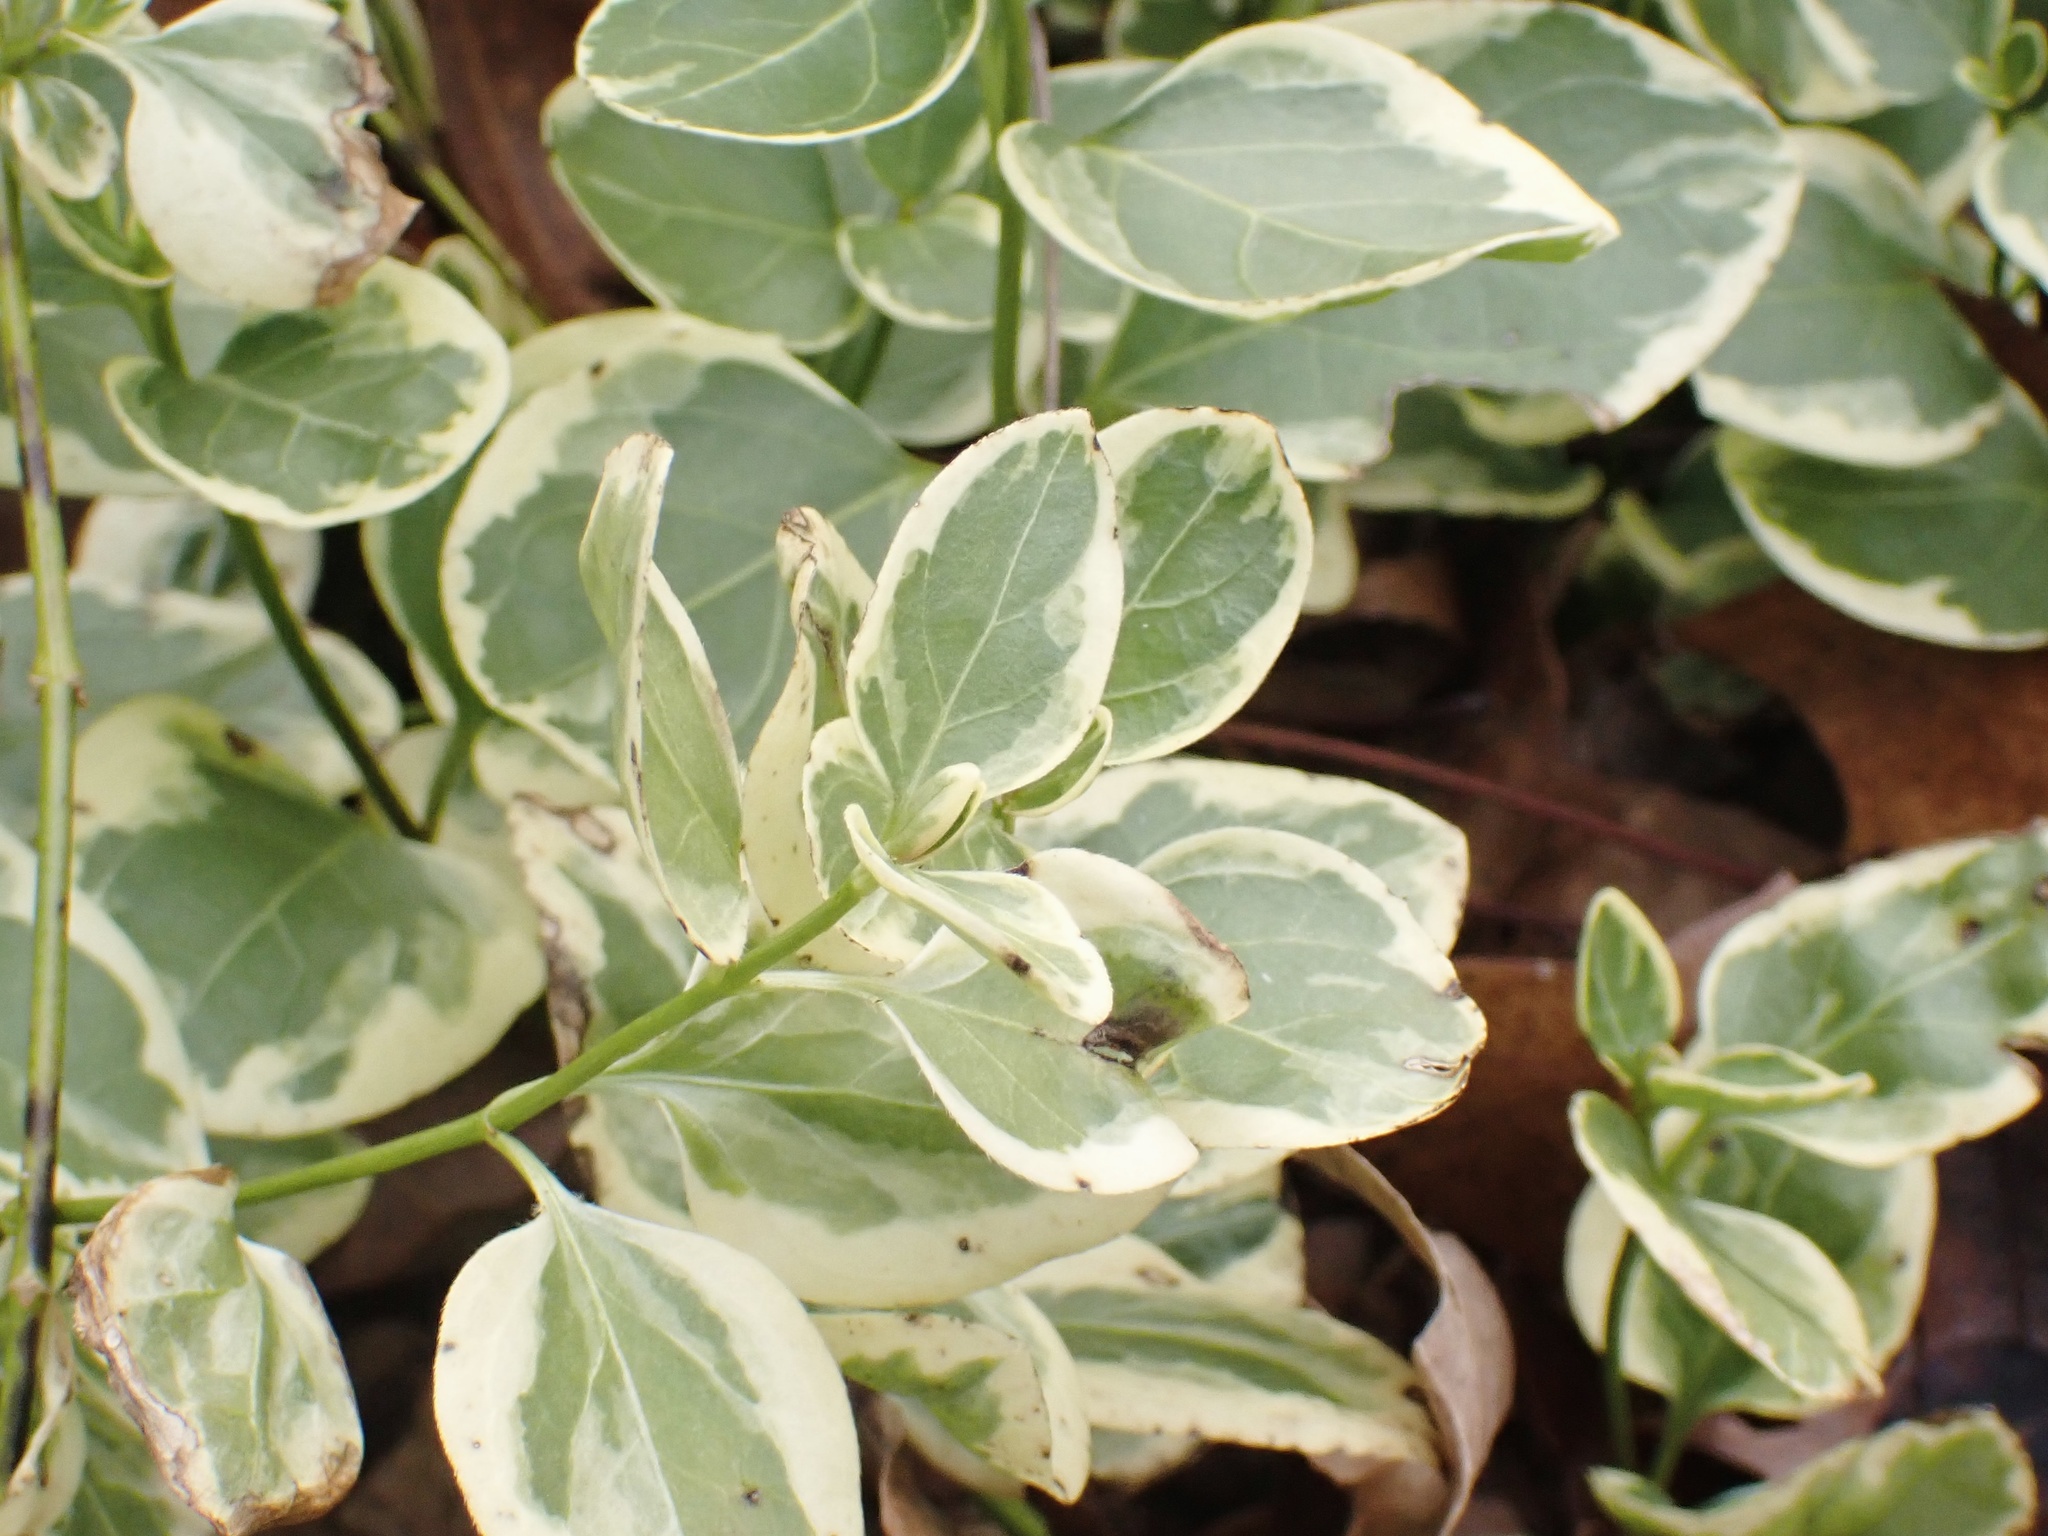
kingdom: Plantae
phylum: Tracheophyta
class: Magnoliopsida
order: Gentianales
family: Apocynaceae
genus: Vinca
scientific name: Vinca major
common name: Greater periwinkle
